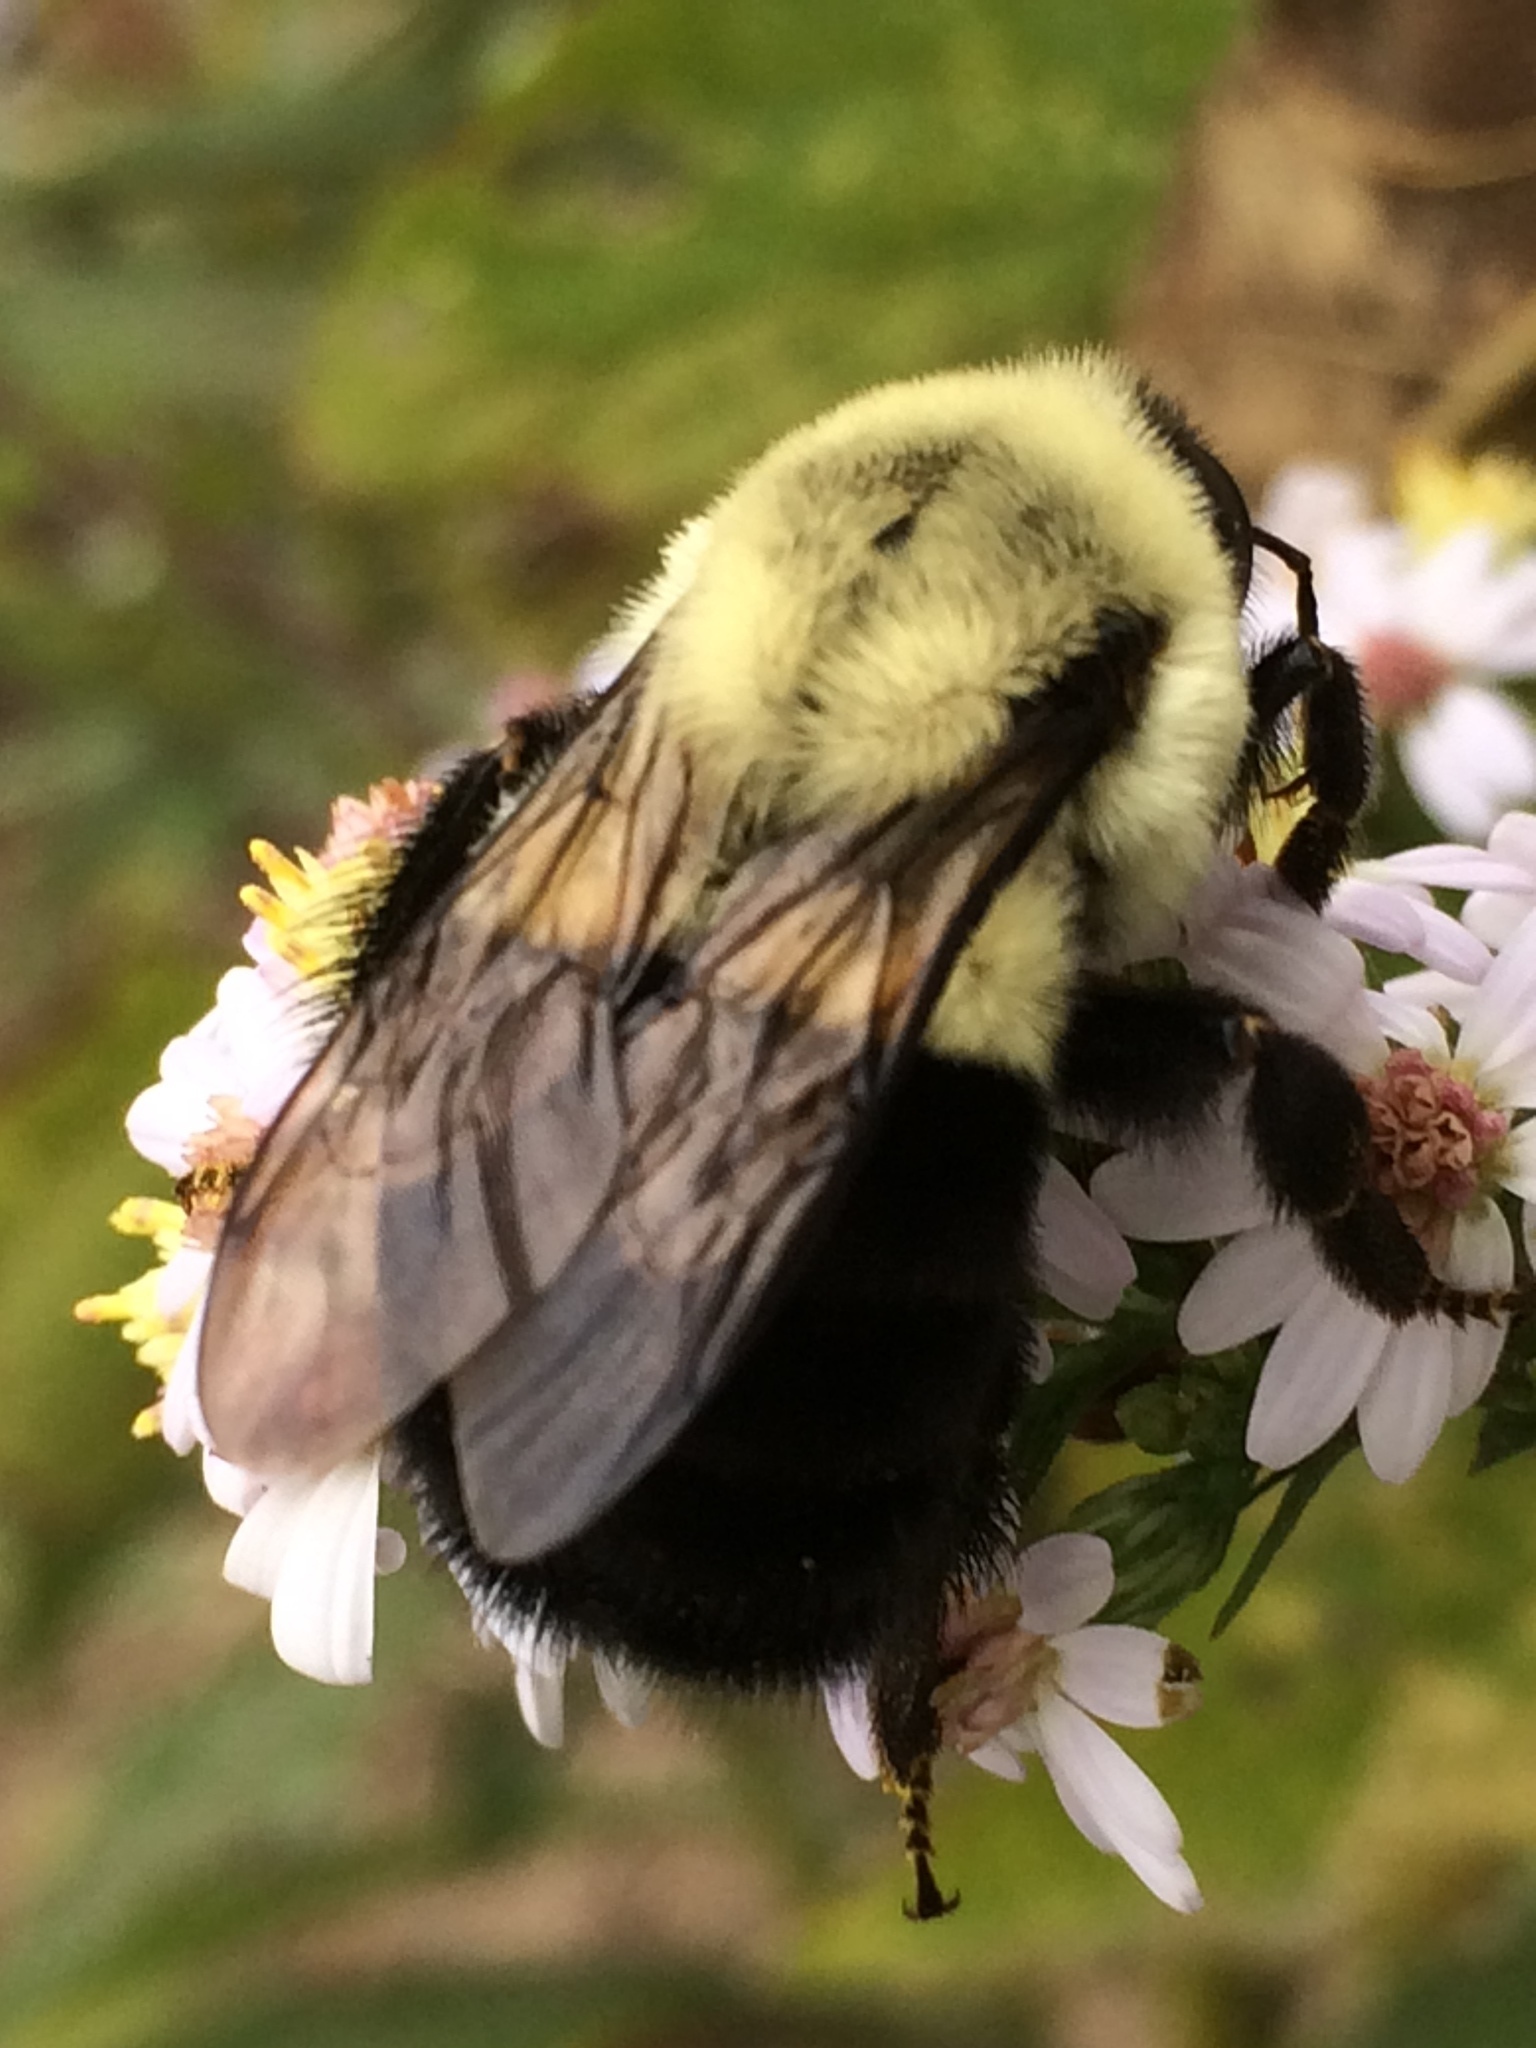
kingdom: Animalia
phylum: Arthropoda
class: Insecta
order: Hymenoptera
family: Apidae
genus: Bombus
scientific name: Bombus impatiens
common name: Common eastern bumble bee
